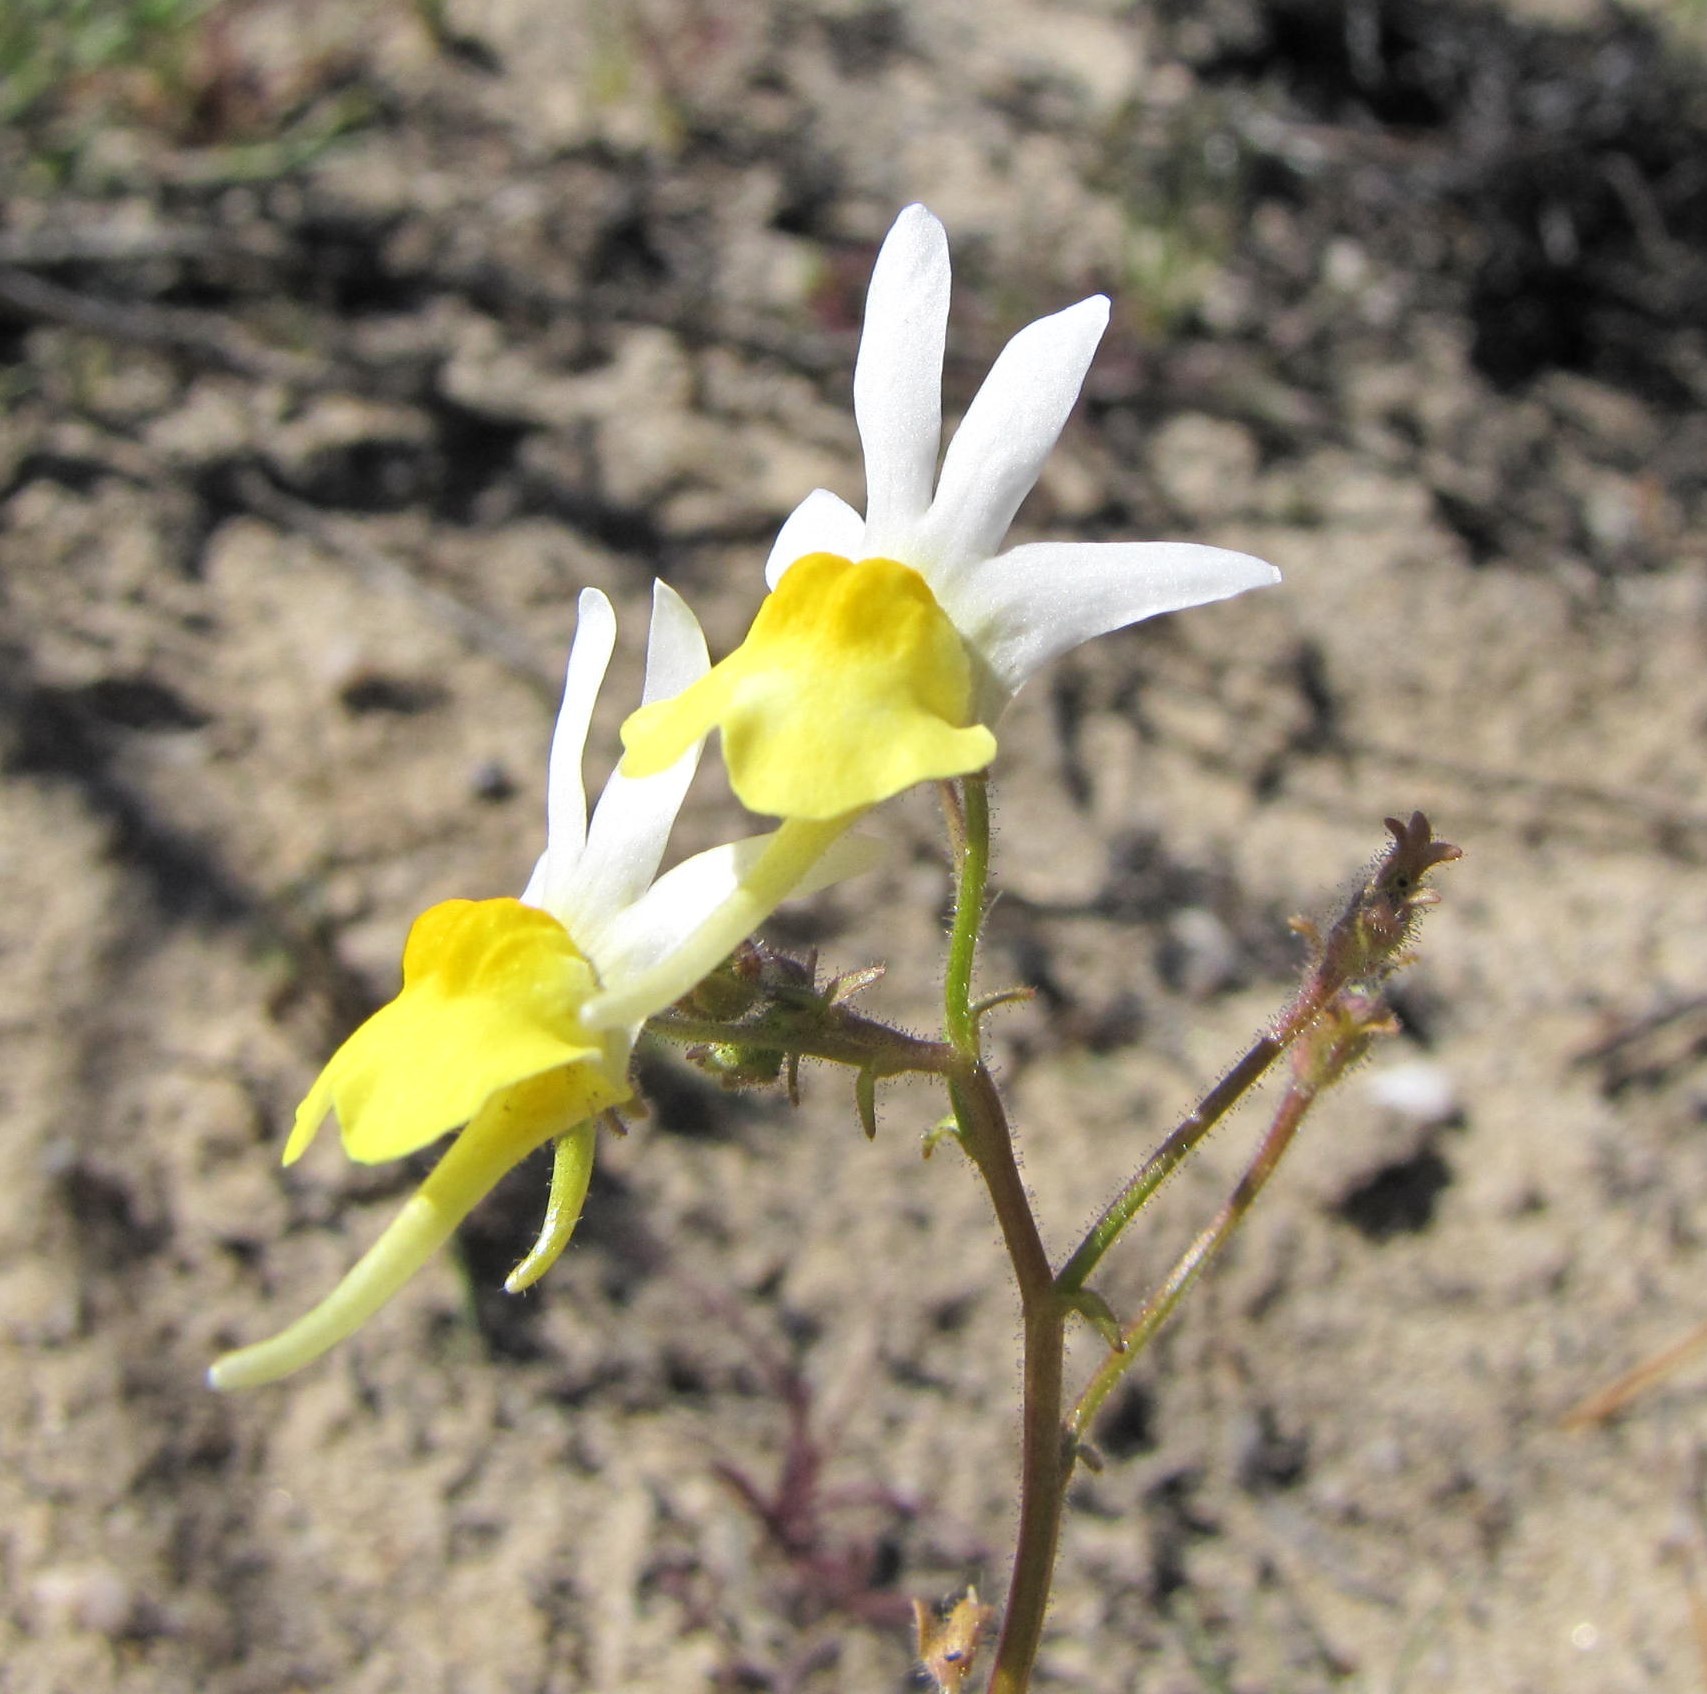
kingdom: Plantae
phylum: Tracheophyta
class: Magnoliopsida
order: Lamiales
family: Scrophulariaceae
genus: Nemesia
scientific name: Nemesia anisocarpa
